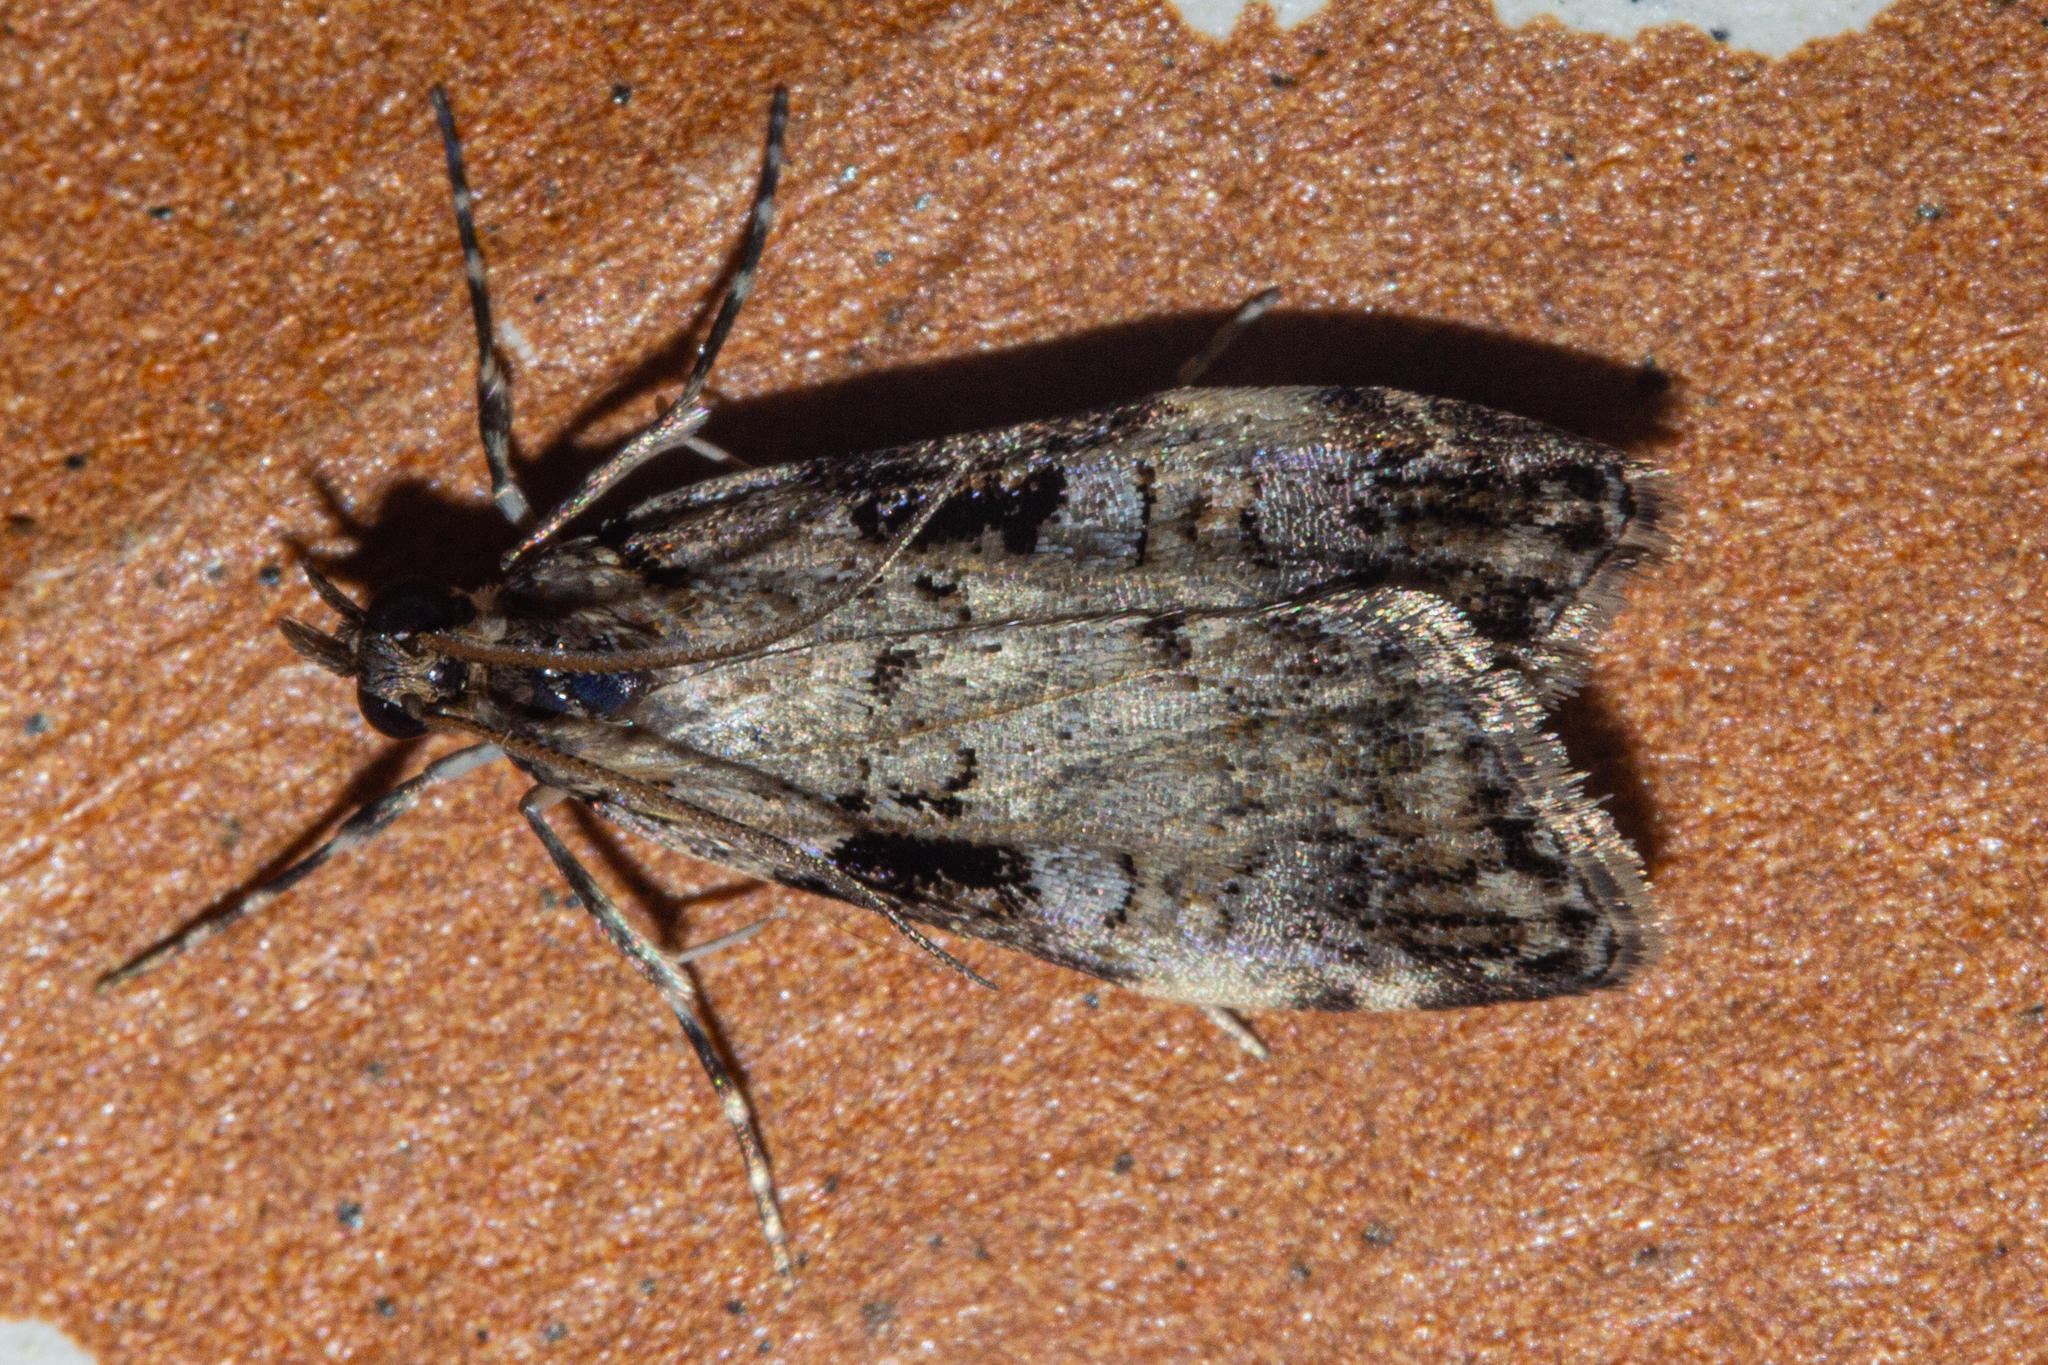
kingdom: Animalia
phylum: Arthropoda
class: Insecta
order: Lepidoptera
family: Crambidae
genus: Scoparia
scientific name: Scoparia acharis
